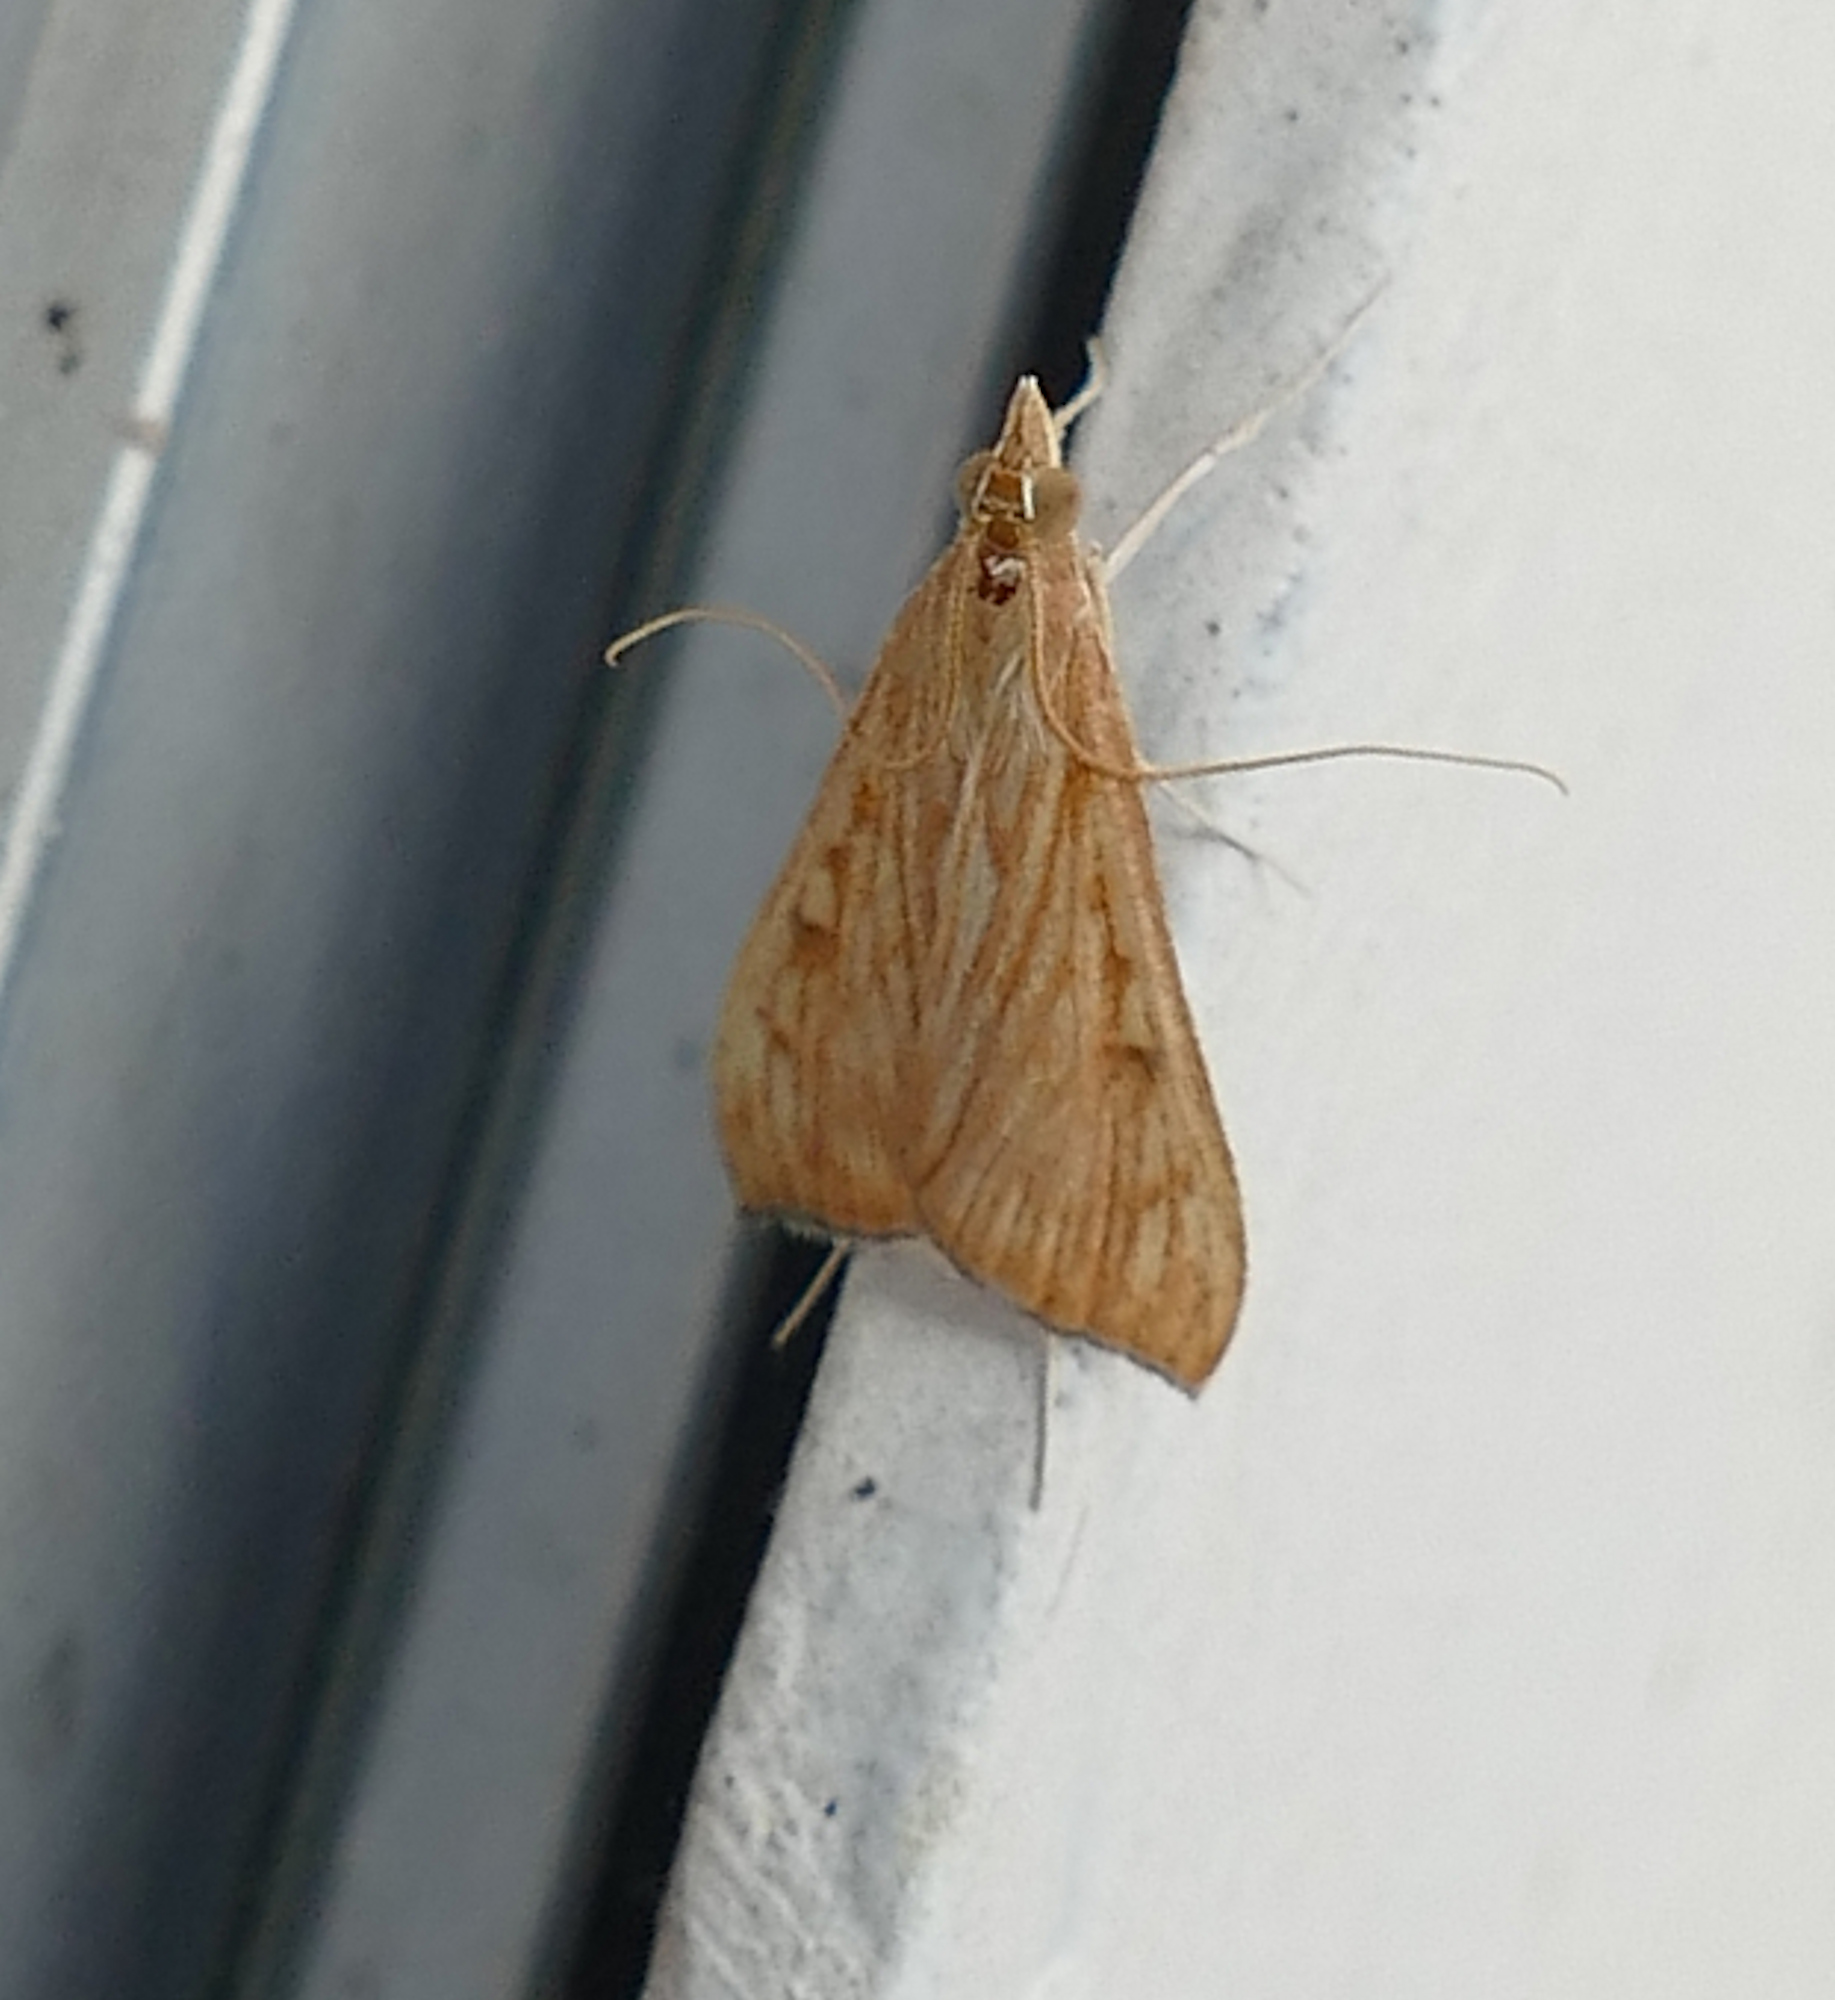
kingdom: Animalia
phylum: Arthropoda
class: Insecta
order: Lepidoptera
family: Crambidae
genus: Antigastra
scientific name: Antigastra catalaunalis
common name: Spanish dot
